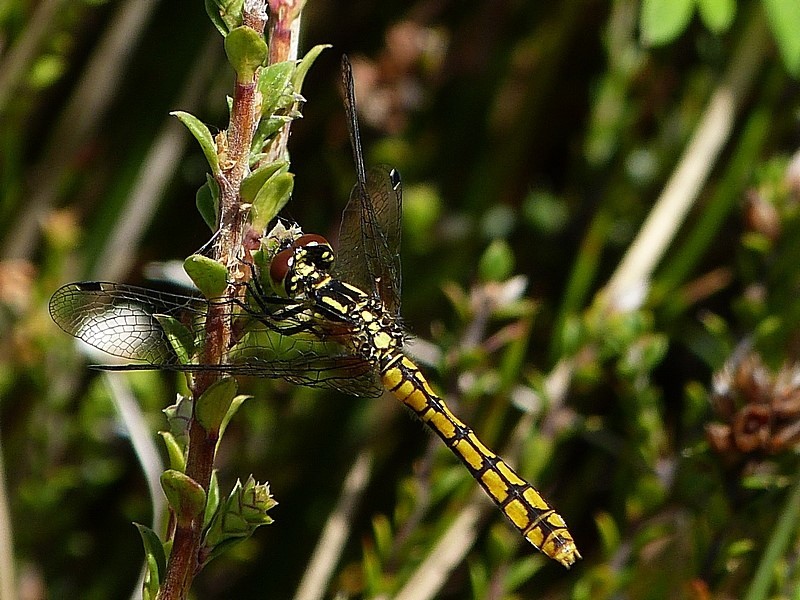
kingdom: Animalia
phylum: Arthropoda
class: Insecta
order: Odonata
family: Libellulidae
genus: Nannophya
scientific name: Nannophya dalei
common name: Eastern pygmyfly
